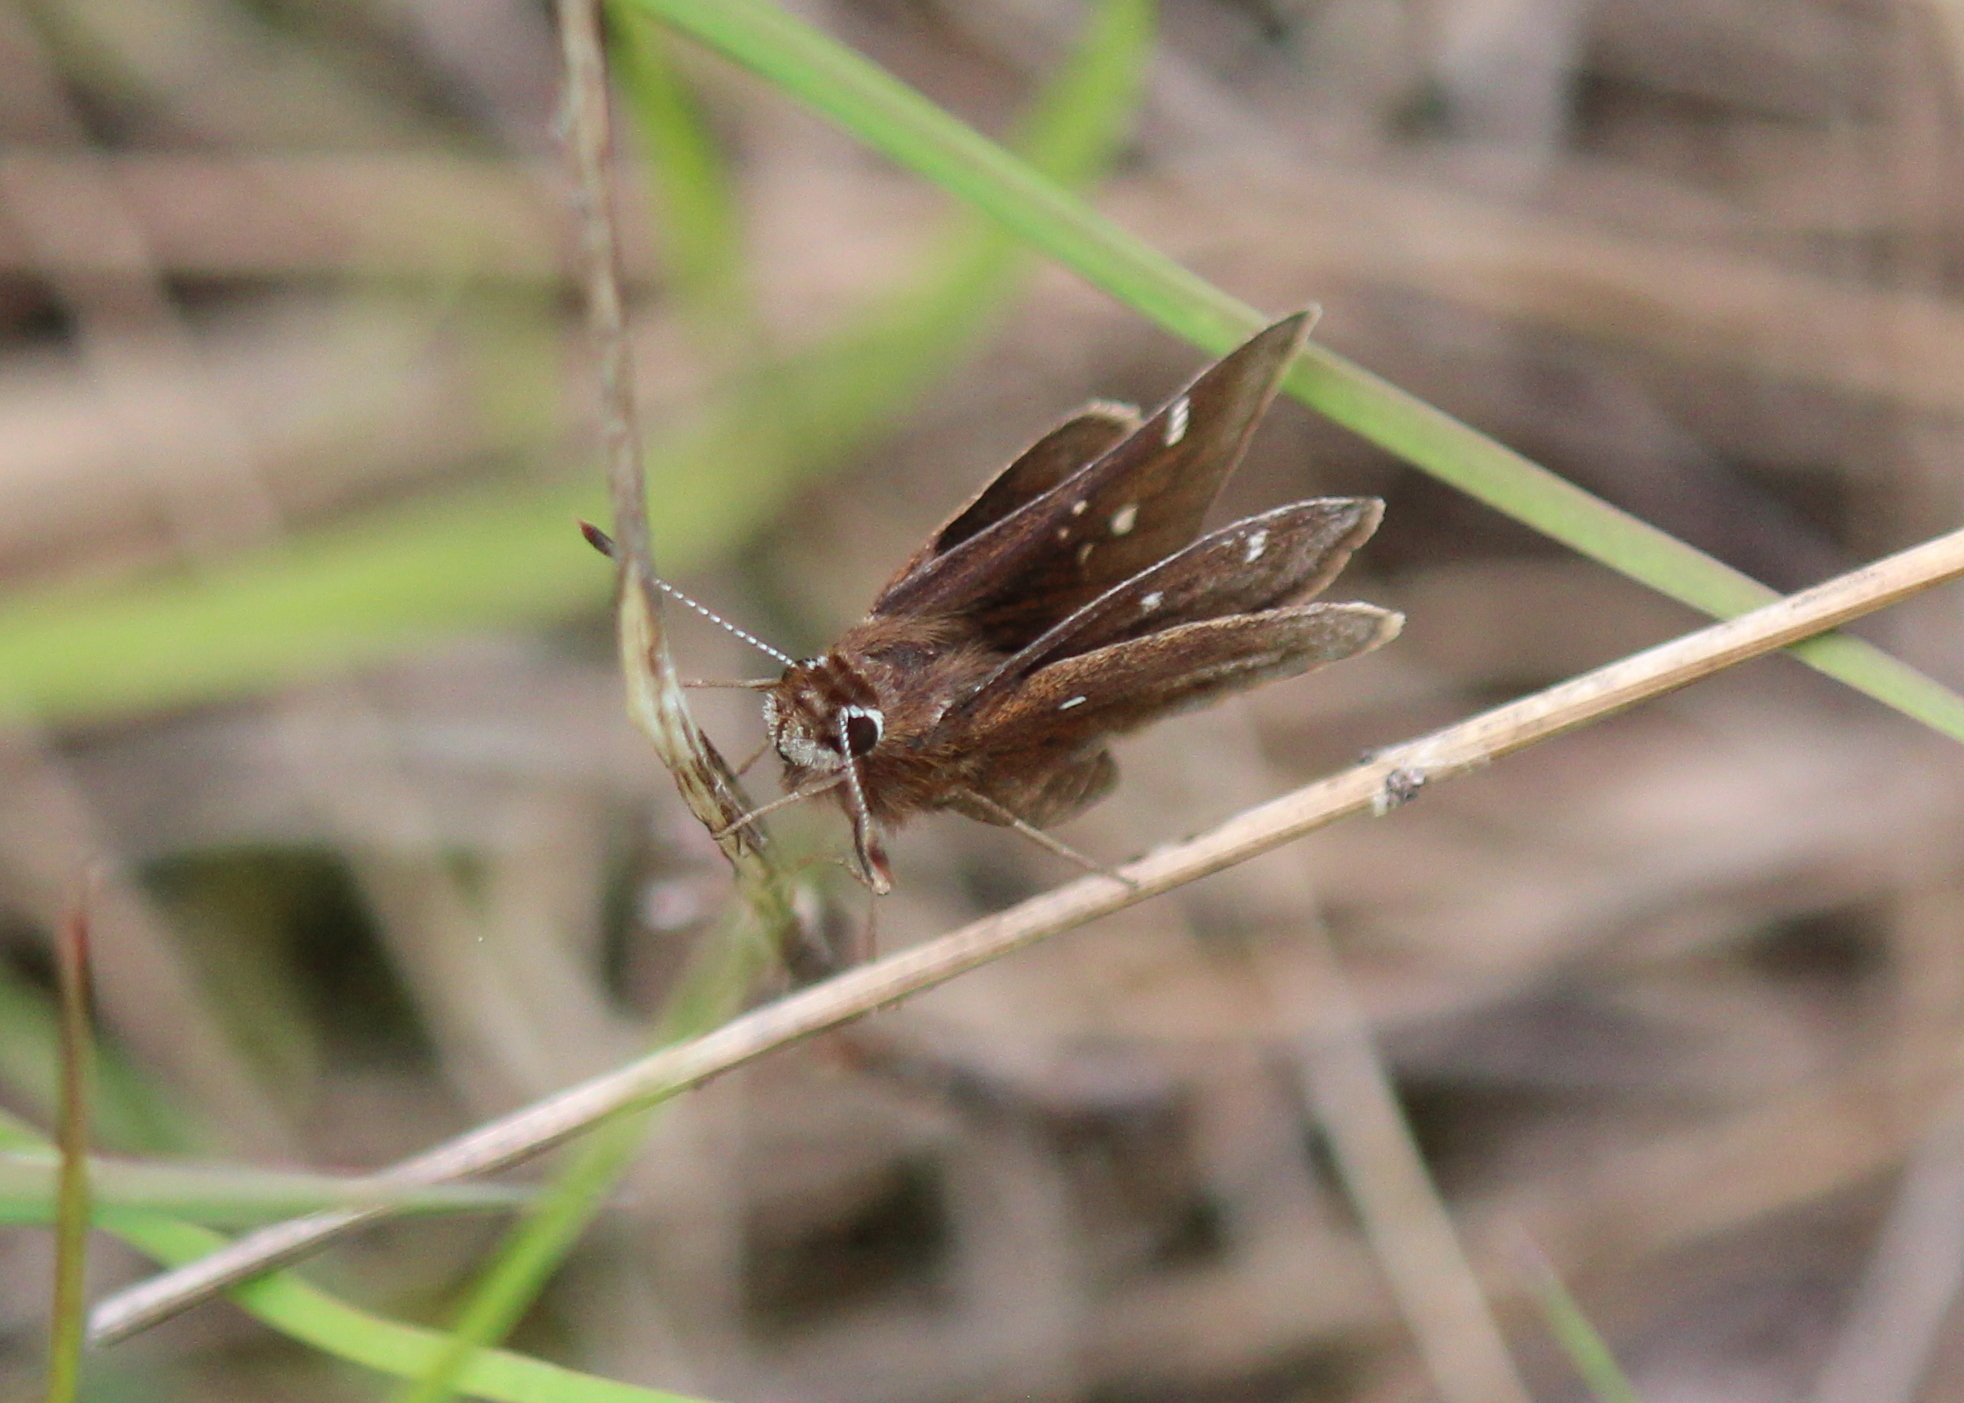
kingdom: Animalia
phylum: Arthropoda
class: Insecta
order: Lepidoptera
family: Hesperiidae
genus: Atrytonopsis
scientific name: Atrytonopsis hianna
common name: Dusted skipper
